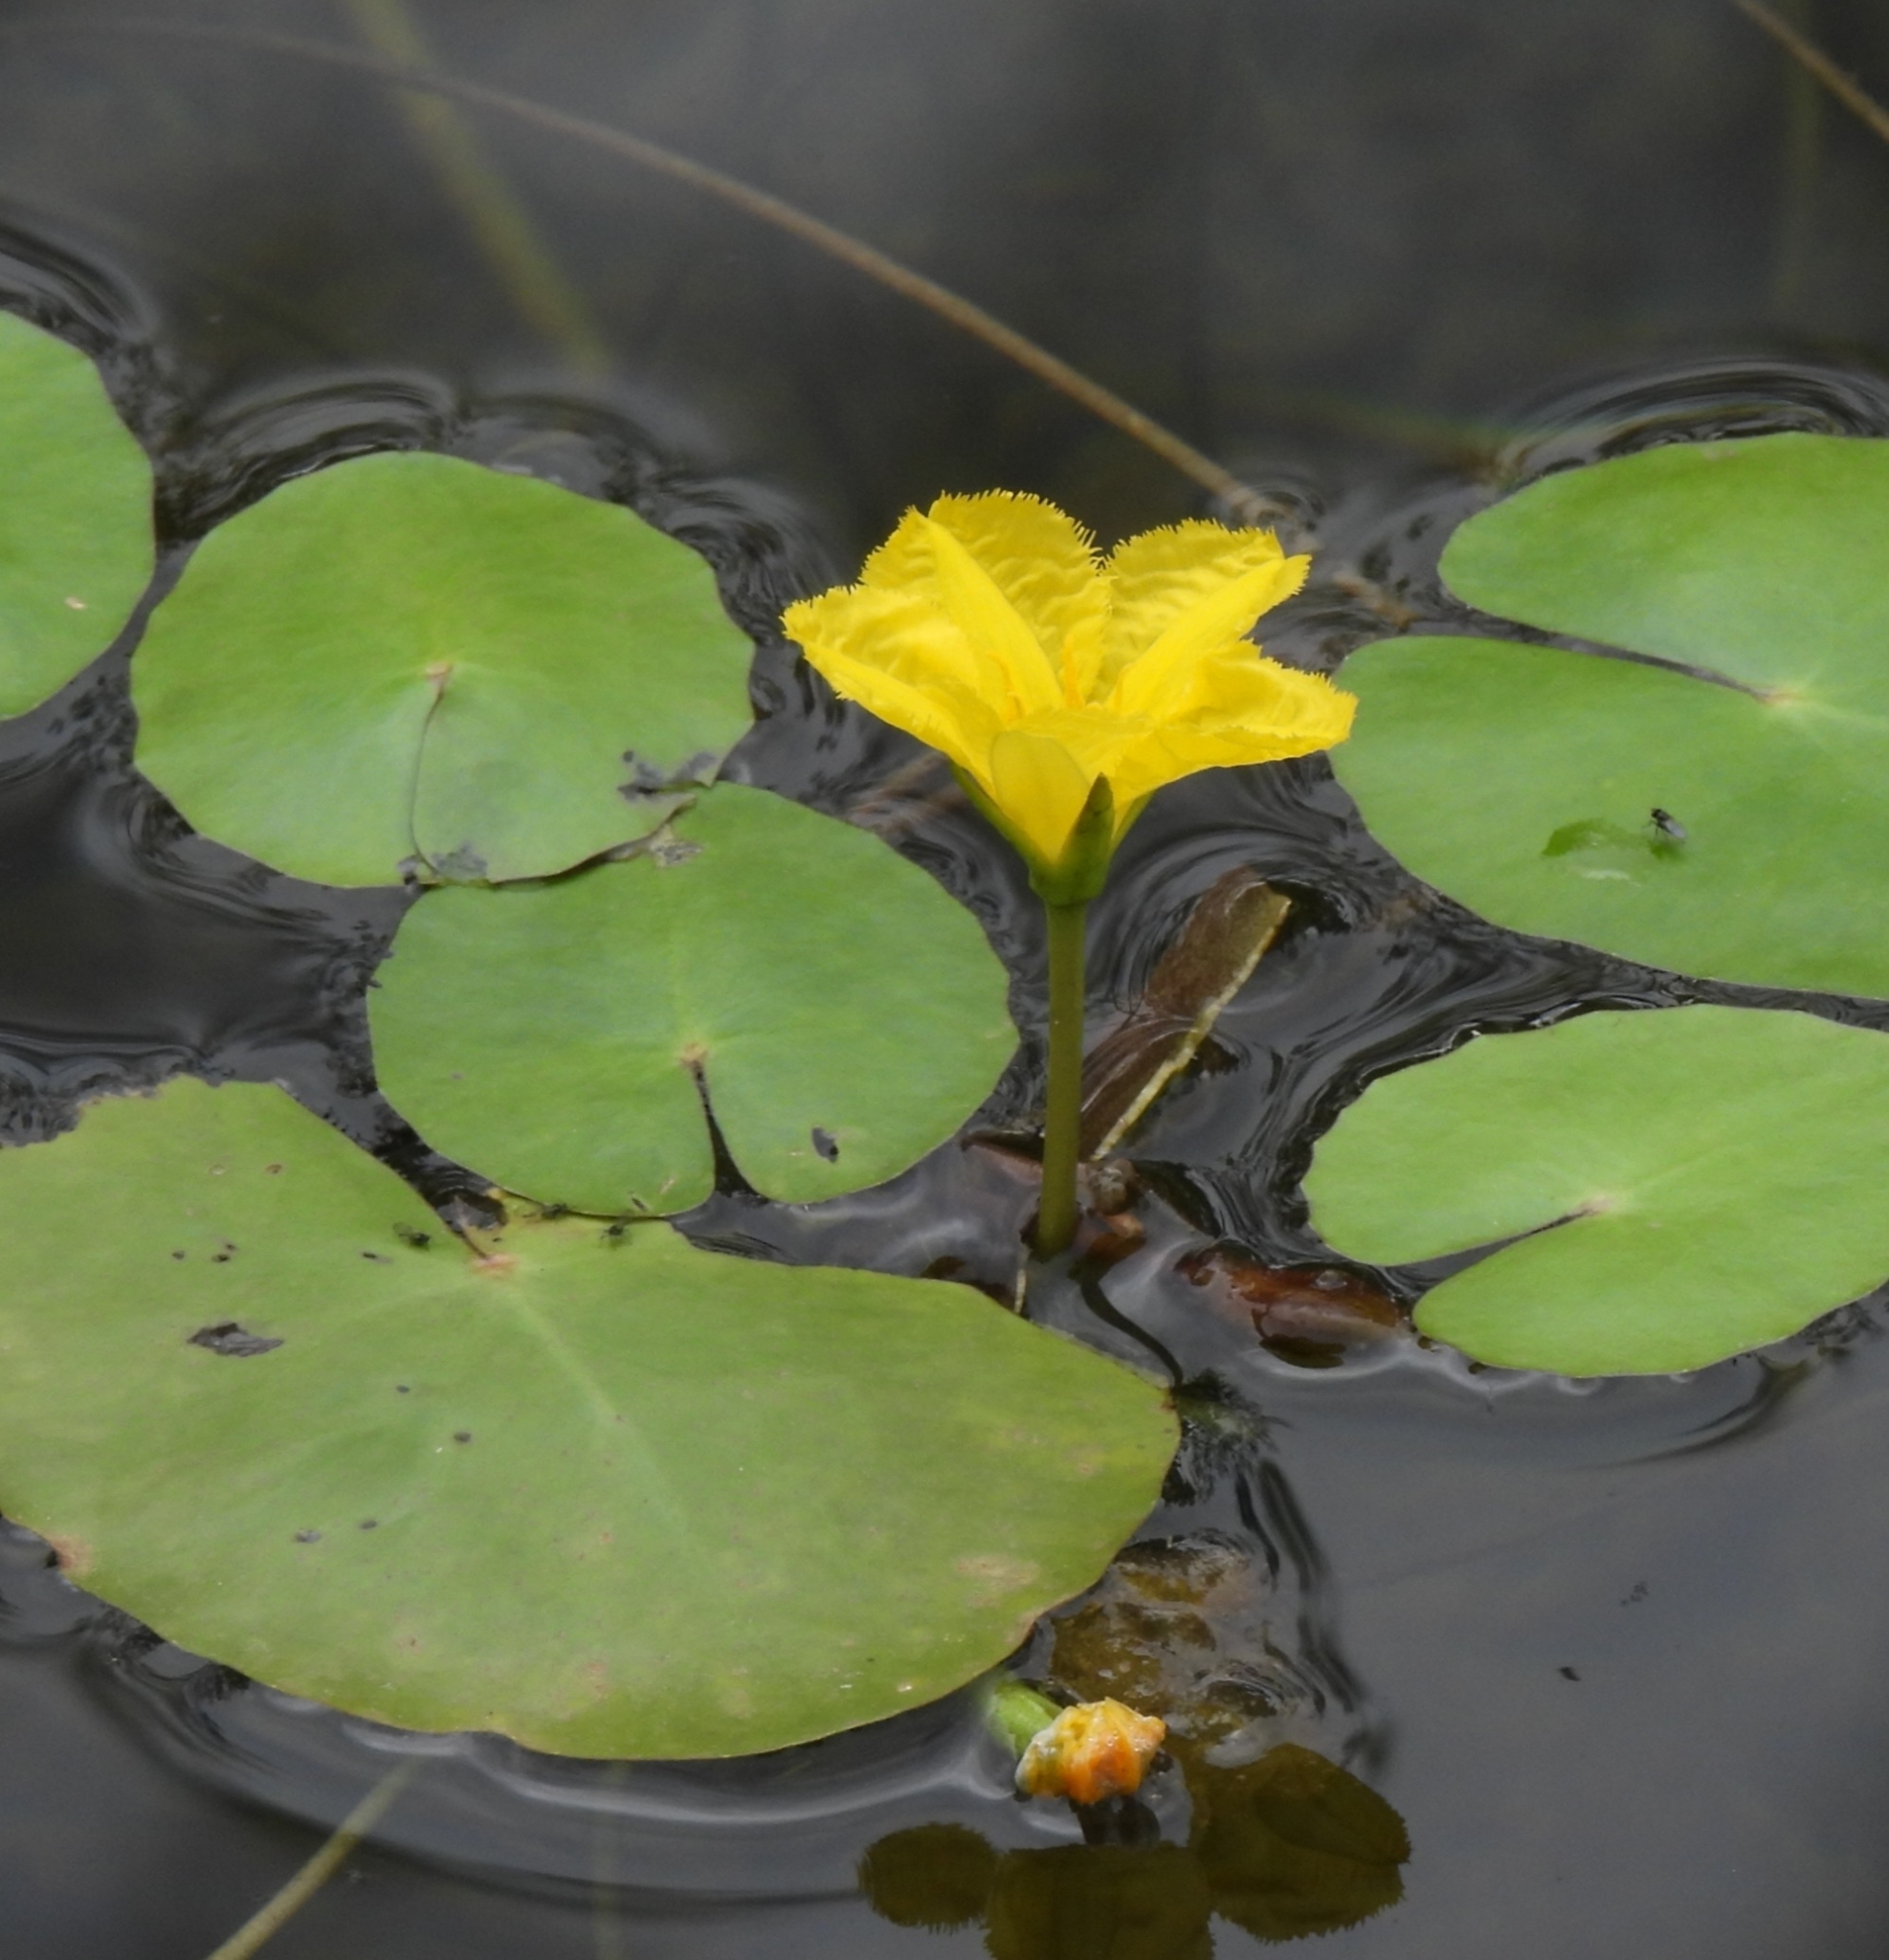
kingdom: Plantae
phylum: Tracheophyta
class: Magnoliopsida
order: Asterales
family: Menyanthaceae
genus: Nymphoides
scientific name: Nymphoides peltata
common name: Fringed water-lily
